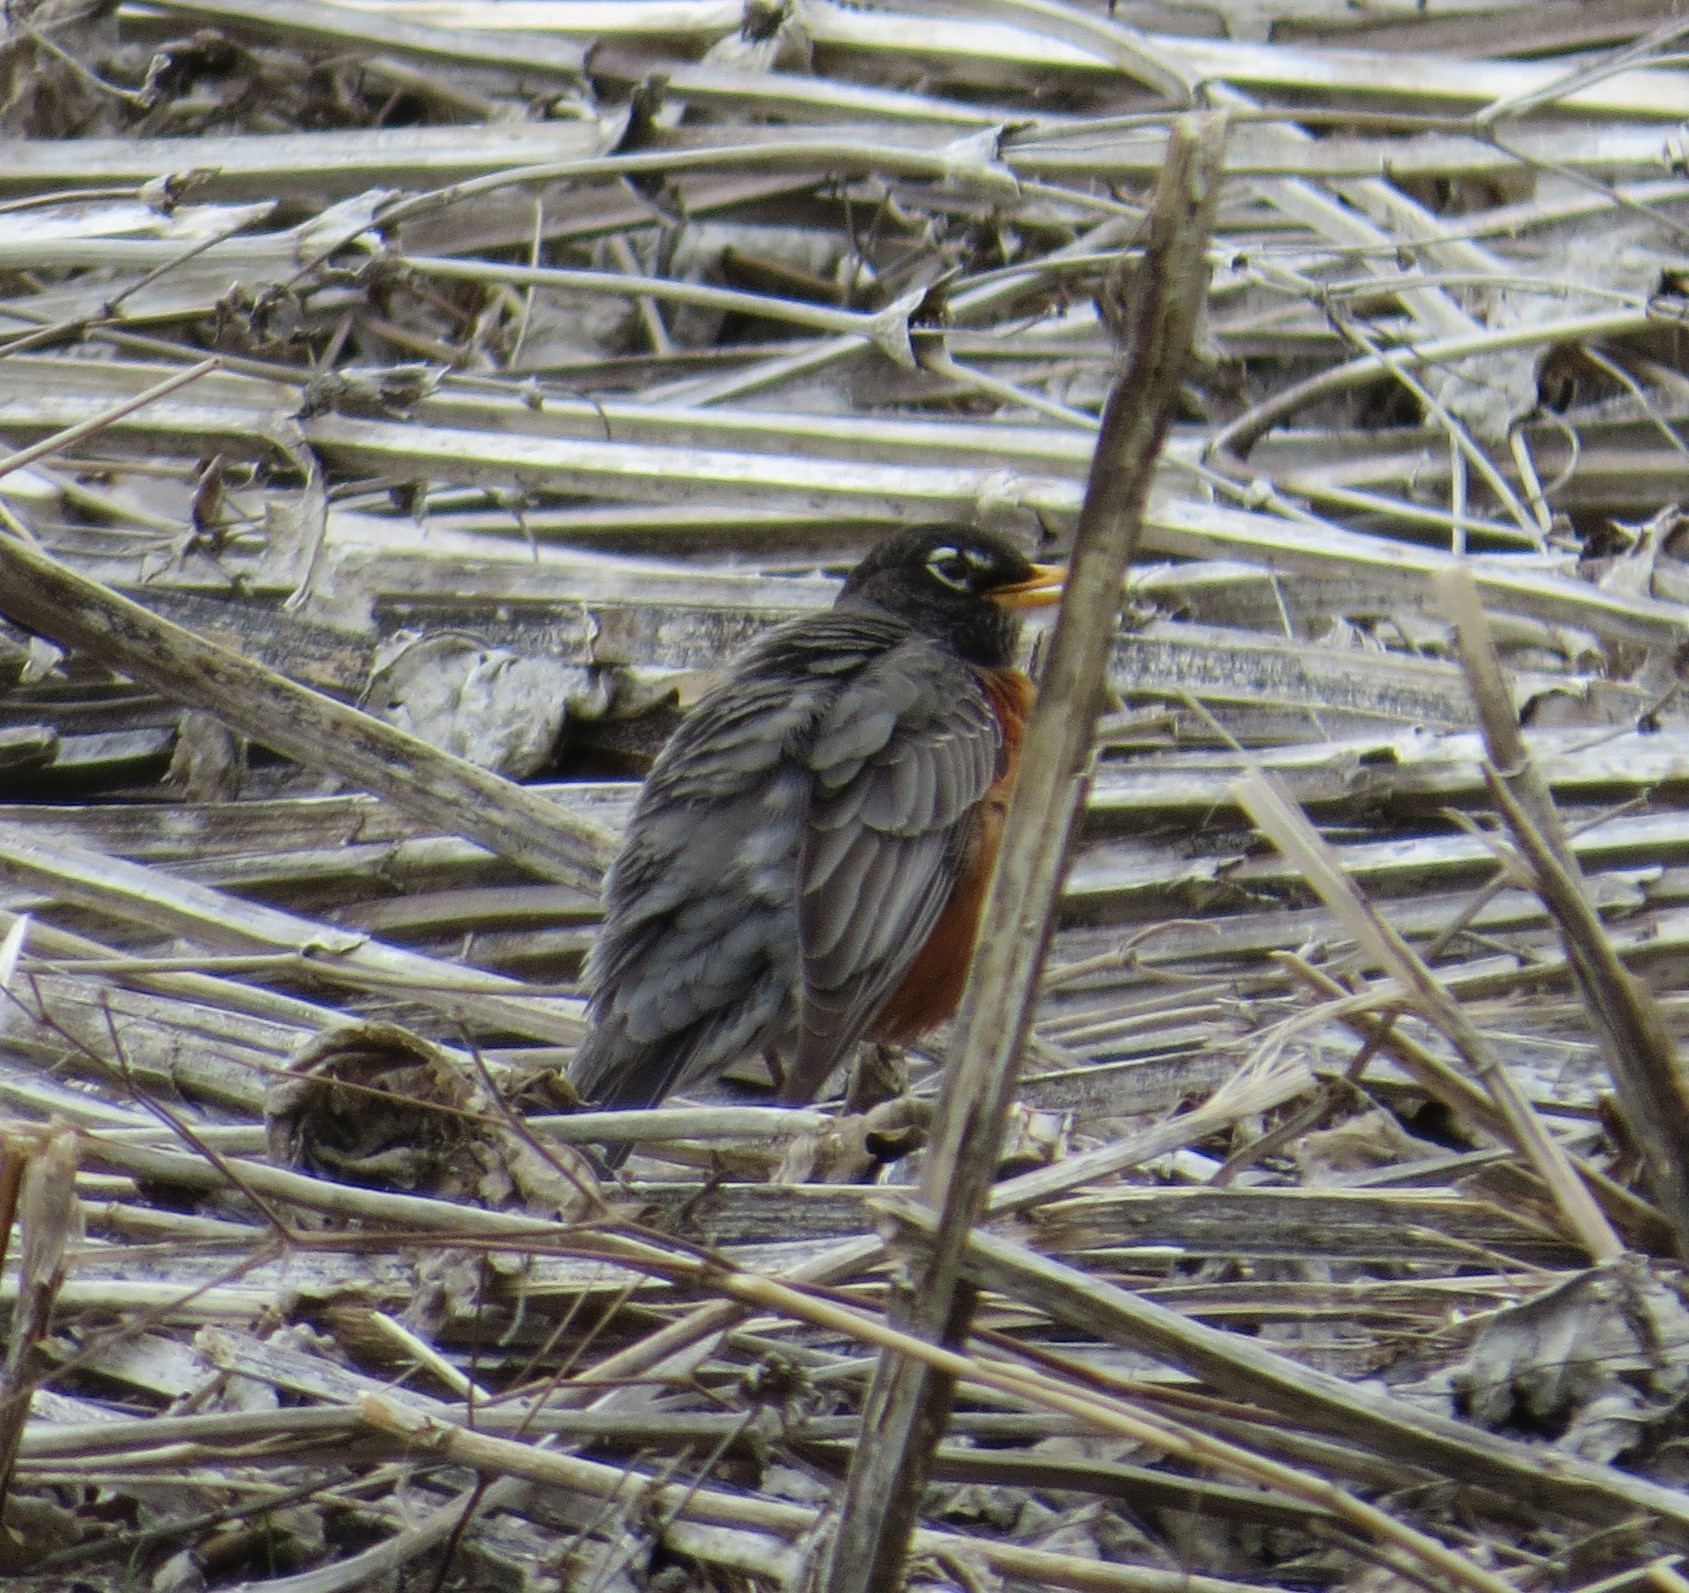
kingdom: Animalia
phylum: Chordata
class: Aves
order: Passeriformes
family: Turdidae
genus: Turdus
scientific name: Turdus migratorius
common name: American robin
